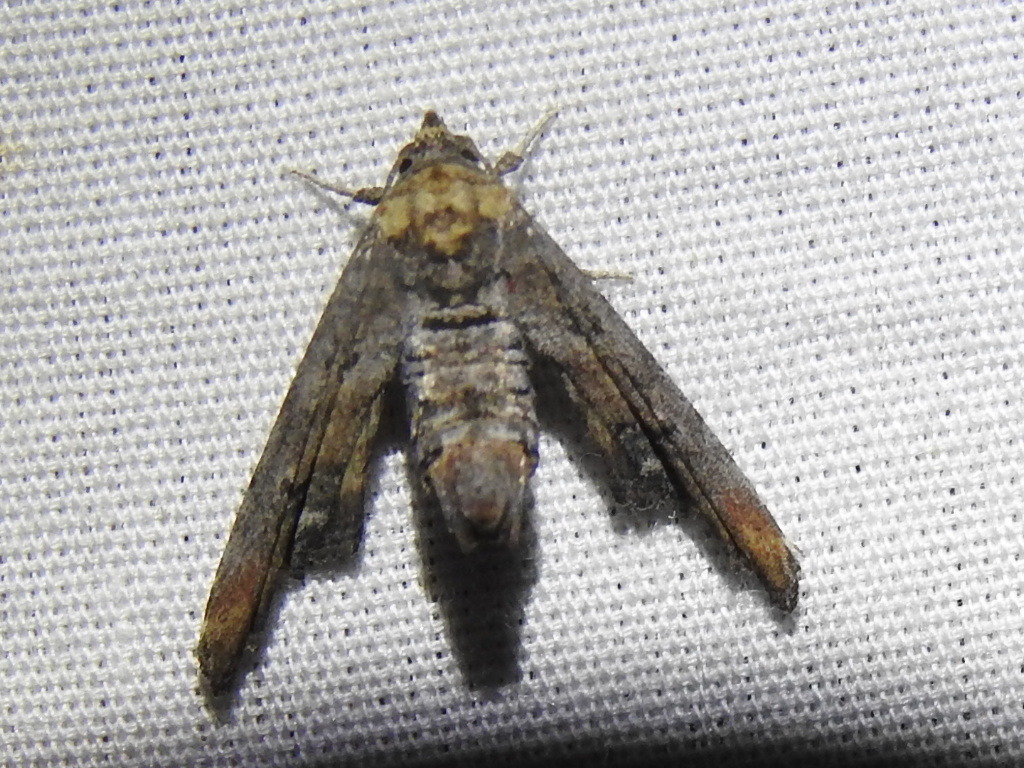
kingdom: Animalia
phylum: Arthropoda
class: Insecta
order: Lepidoptera
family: Euteliidae
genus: Marathyssa
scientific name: Marathyssa inficita
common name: Dark marathyssa moth
